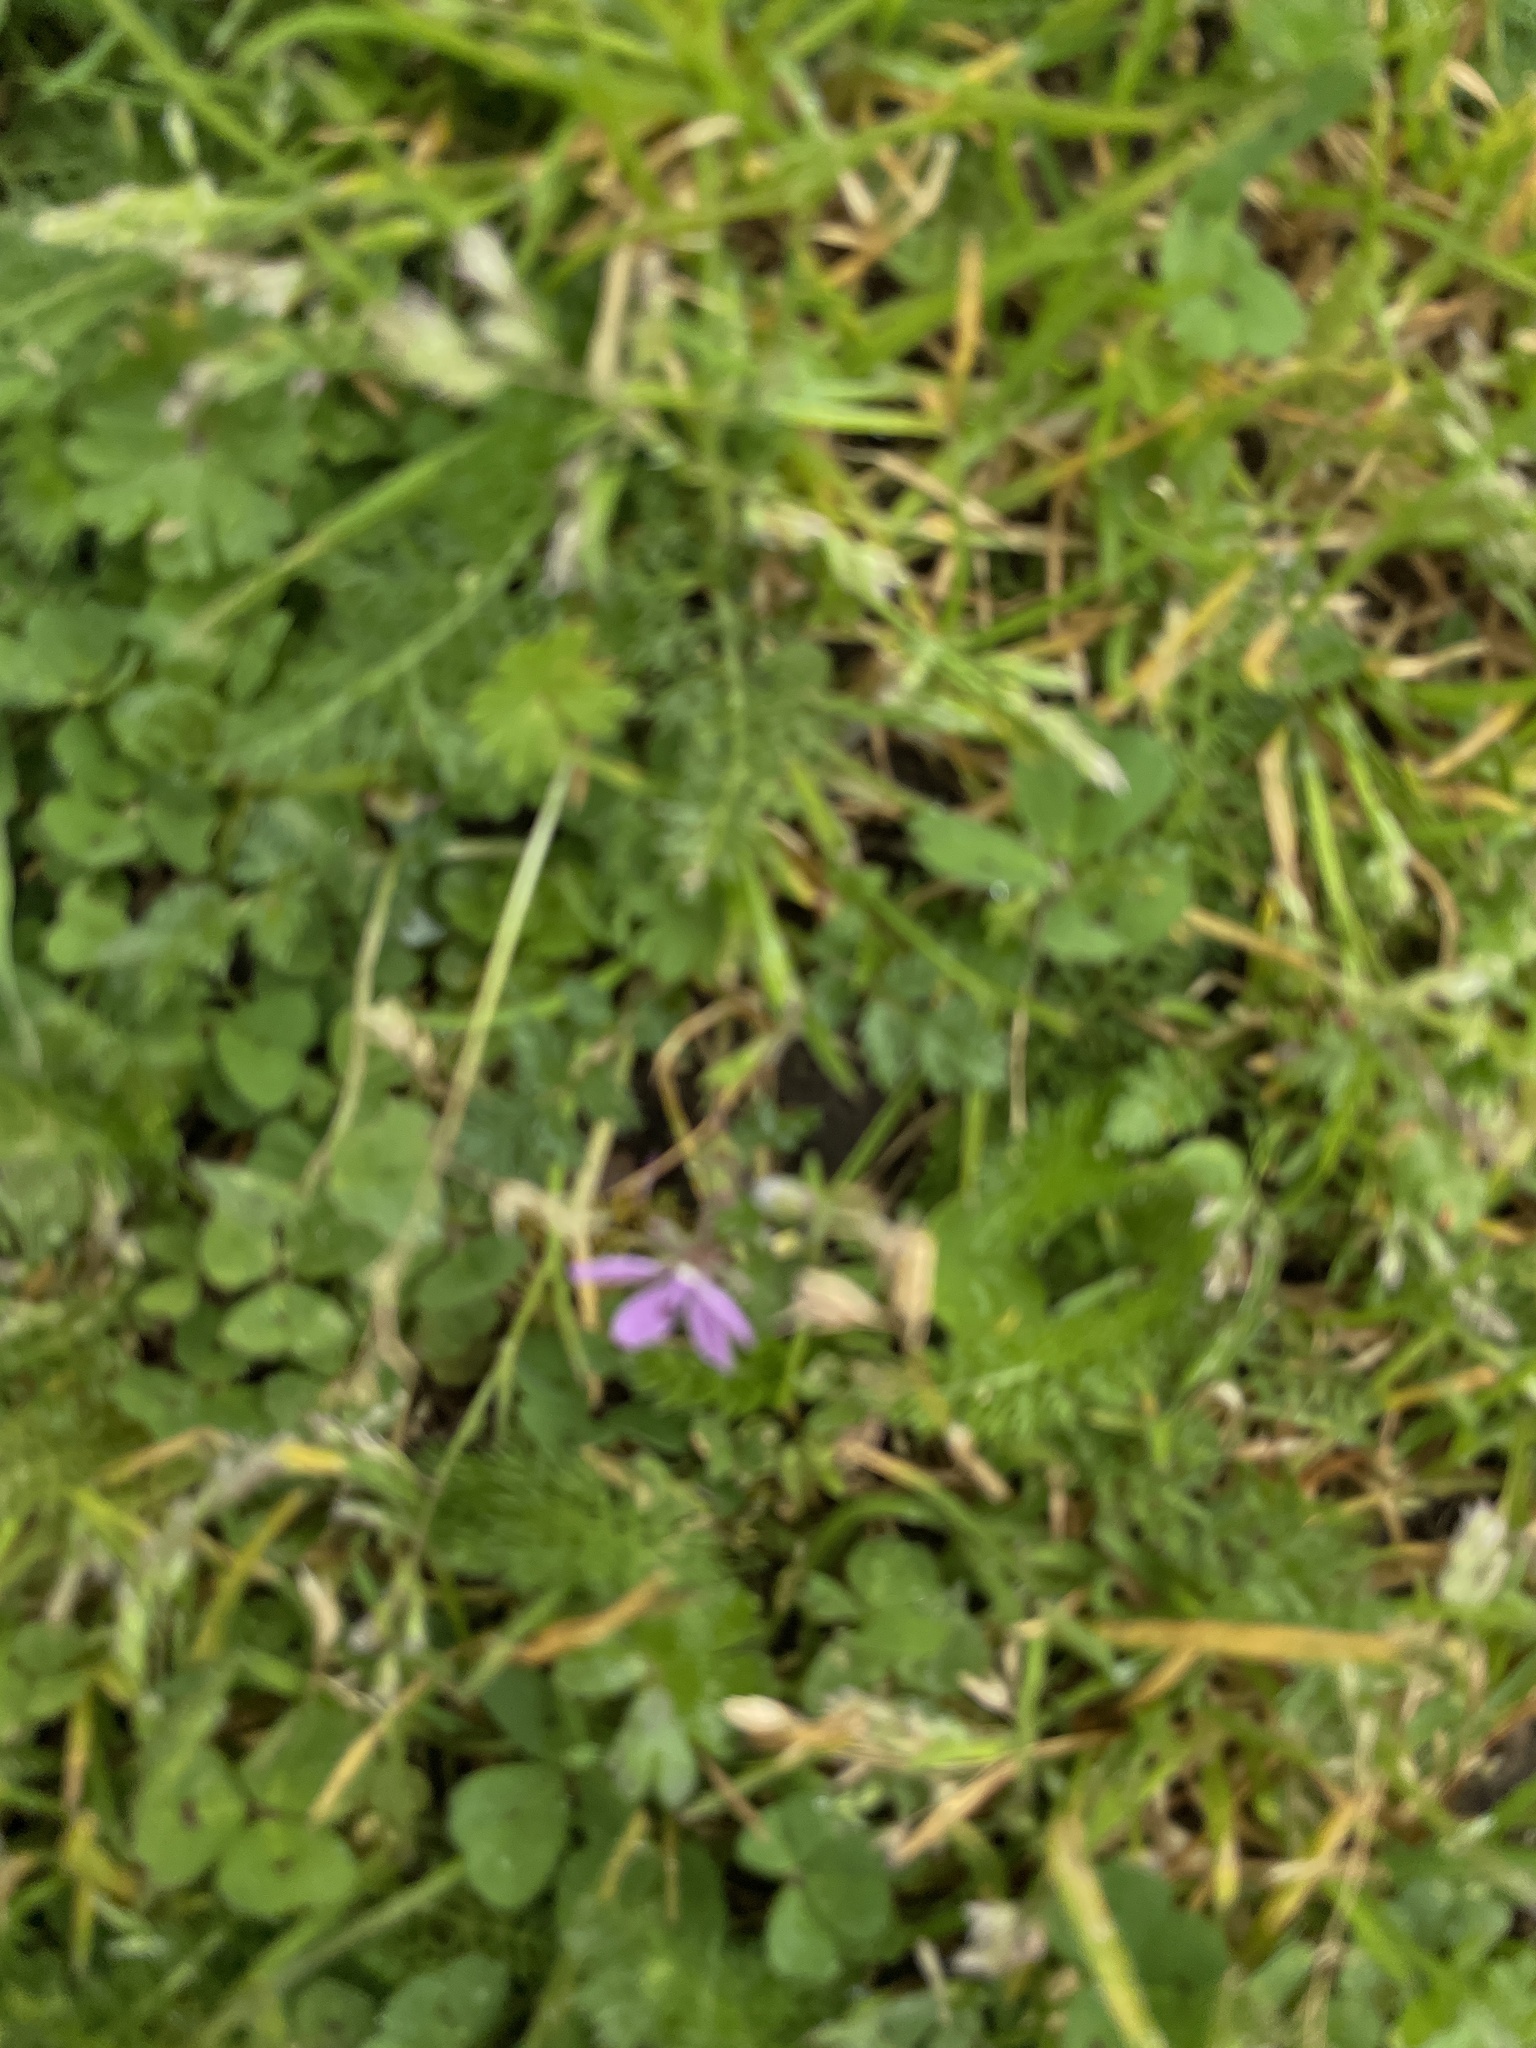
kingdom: Plantae
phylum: Tracheophyta
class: Magnoliopsida
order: Geraniales
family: Geraniaceae
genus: Erodium
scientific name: Erodium cicutarium
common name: Common stork's-bill
